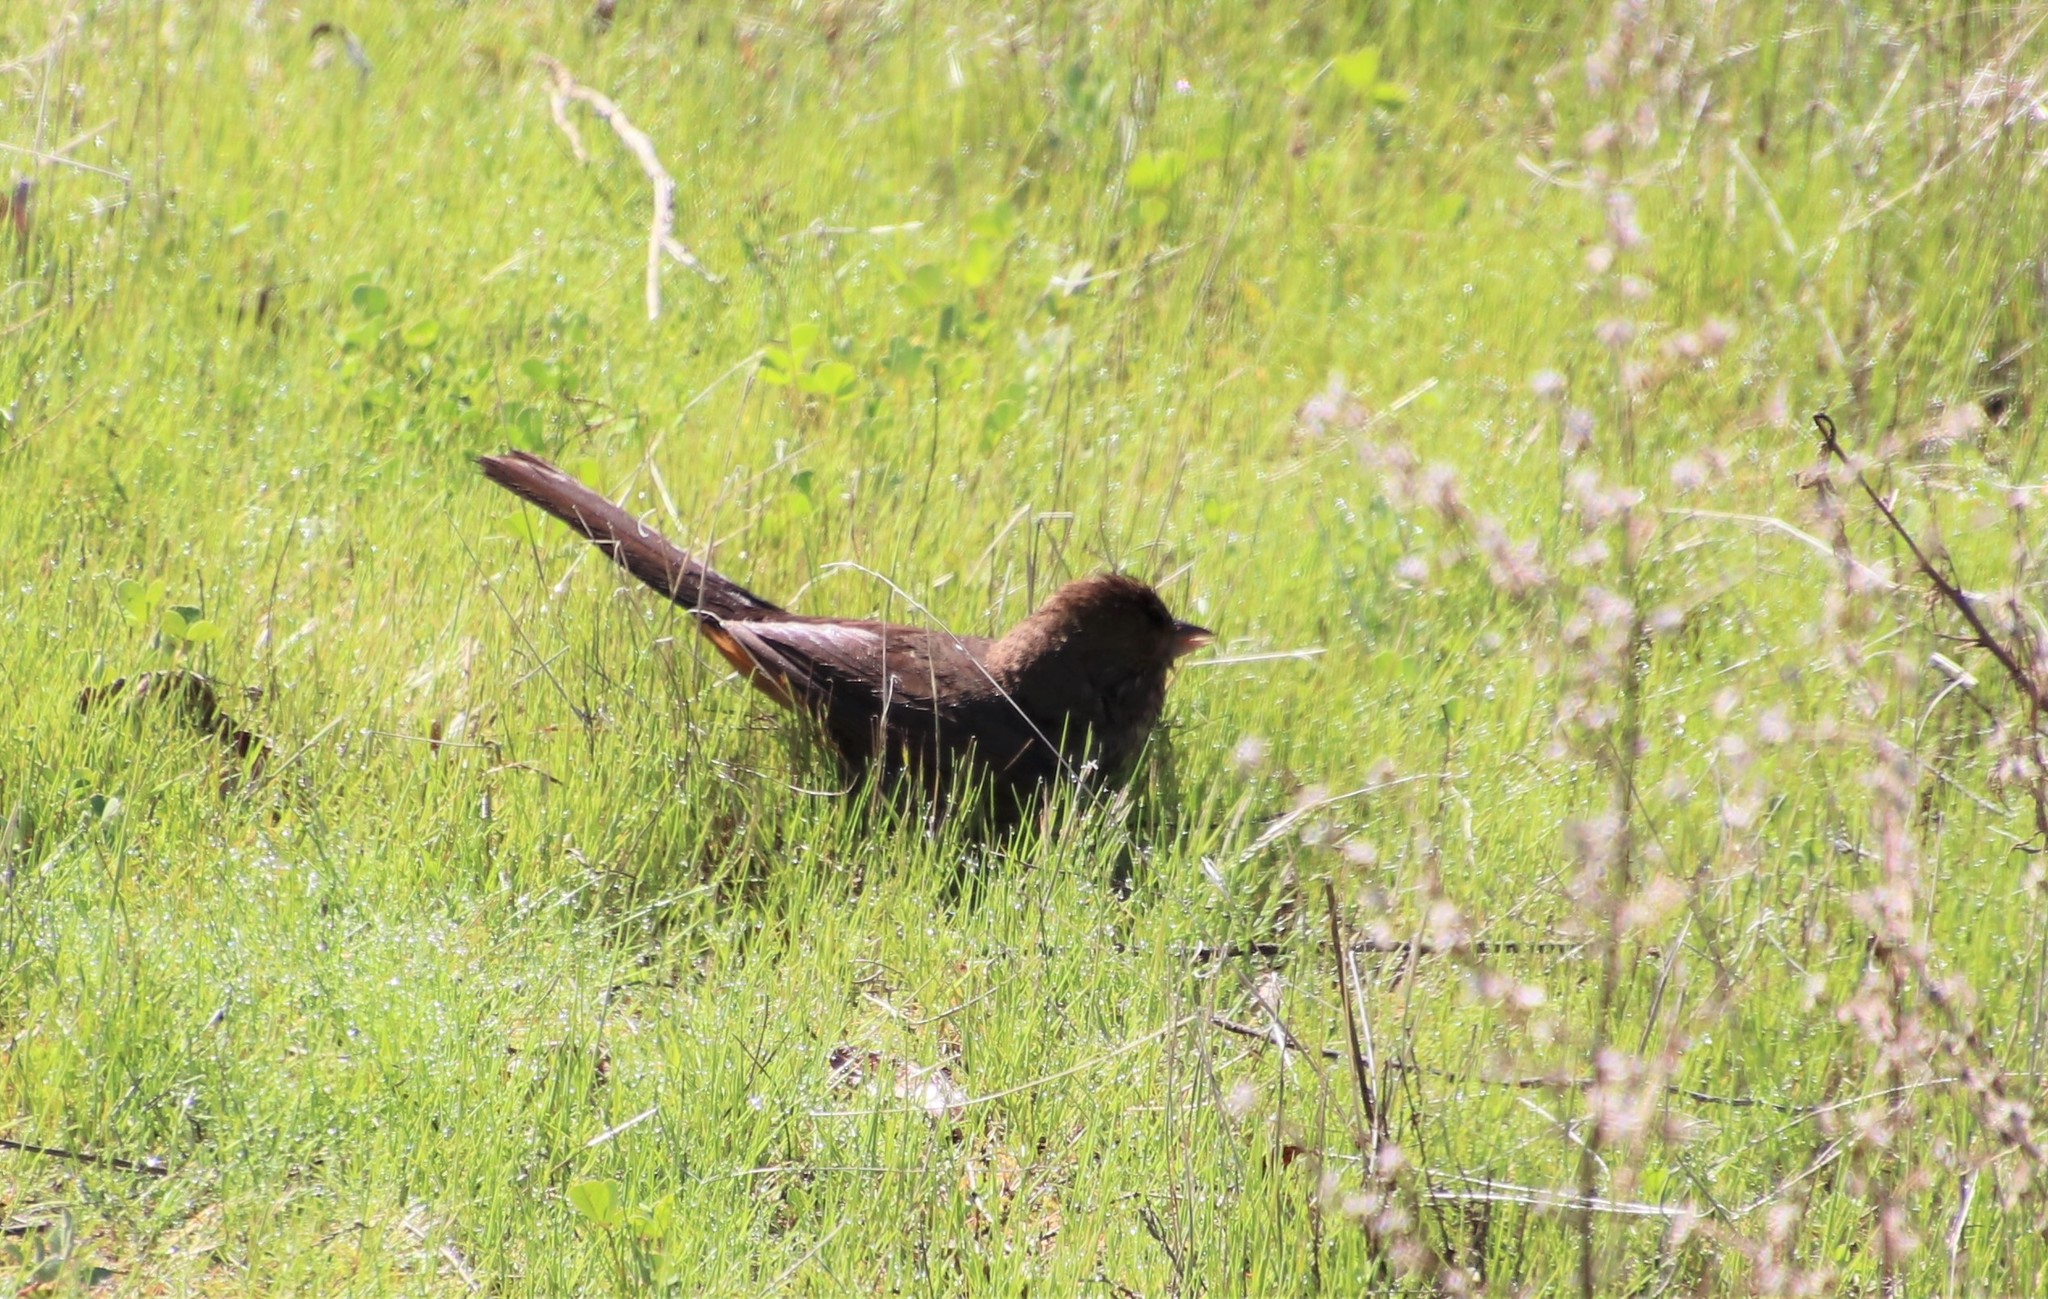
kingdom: Animalia
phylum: Chordata
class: Aves
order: Passeriformes
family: Passerellidae
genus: Melozone
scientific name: Melozone crissalis
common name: California towhee
